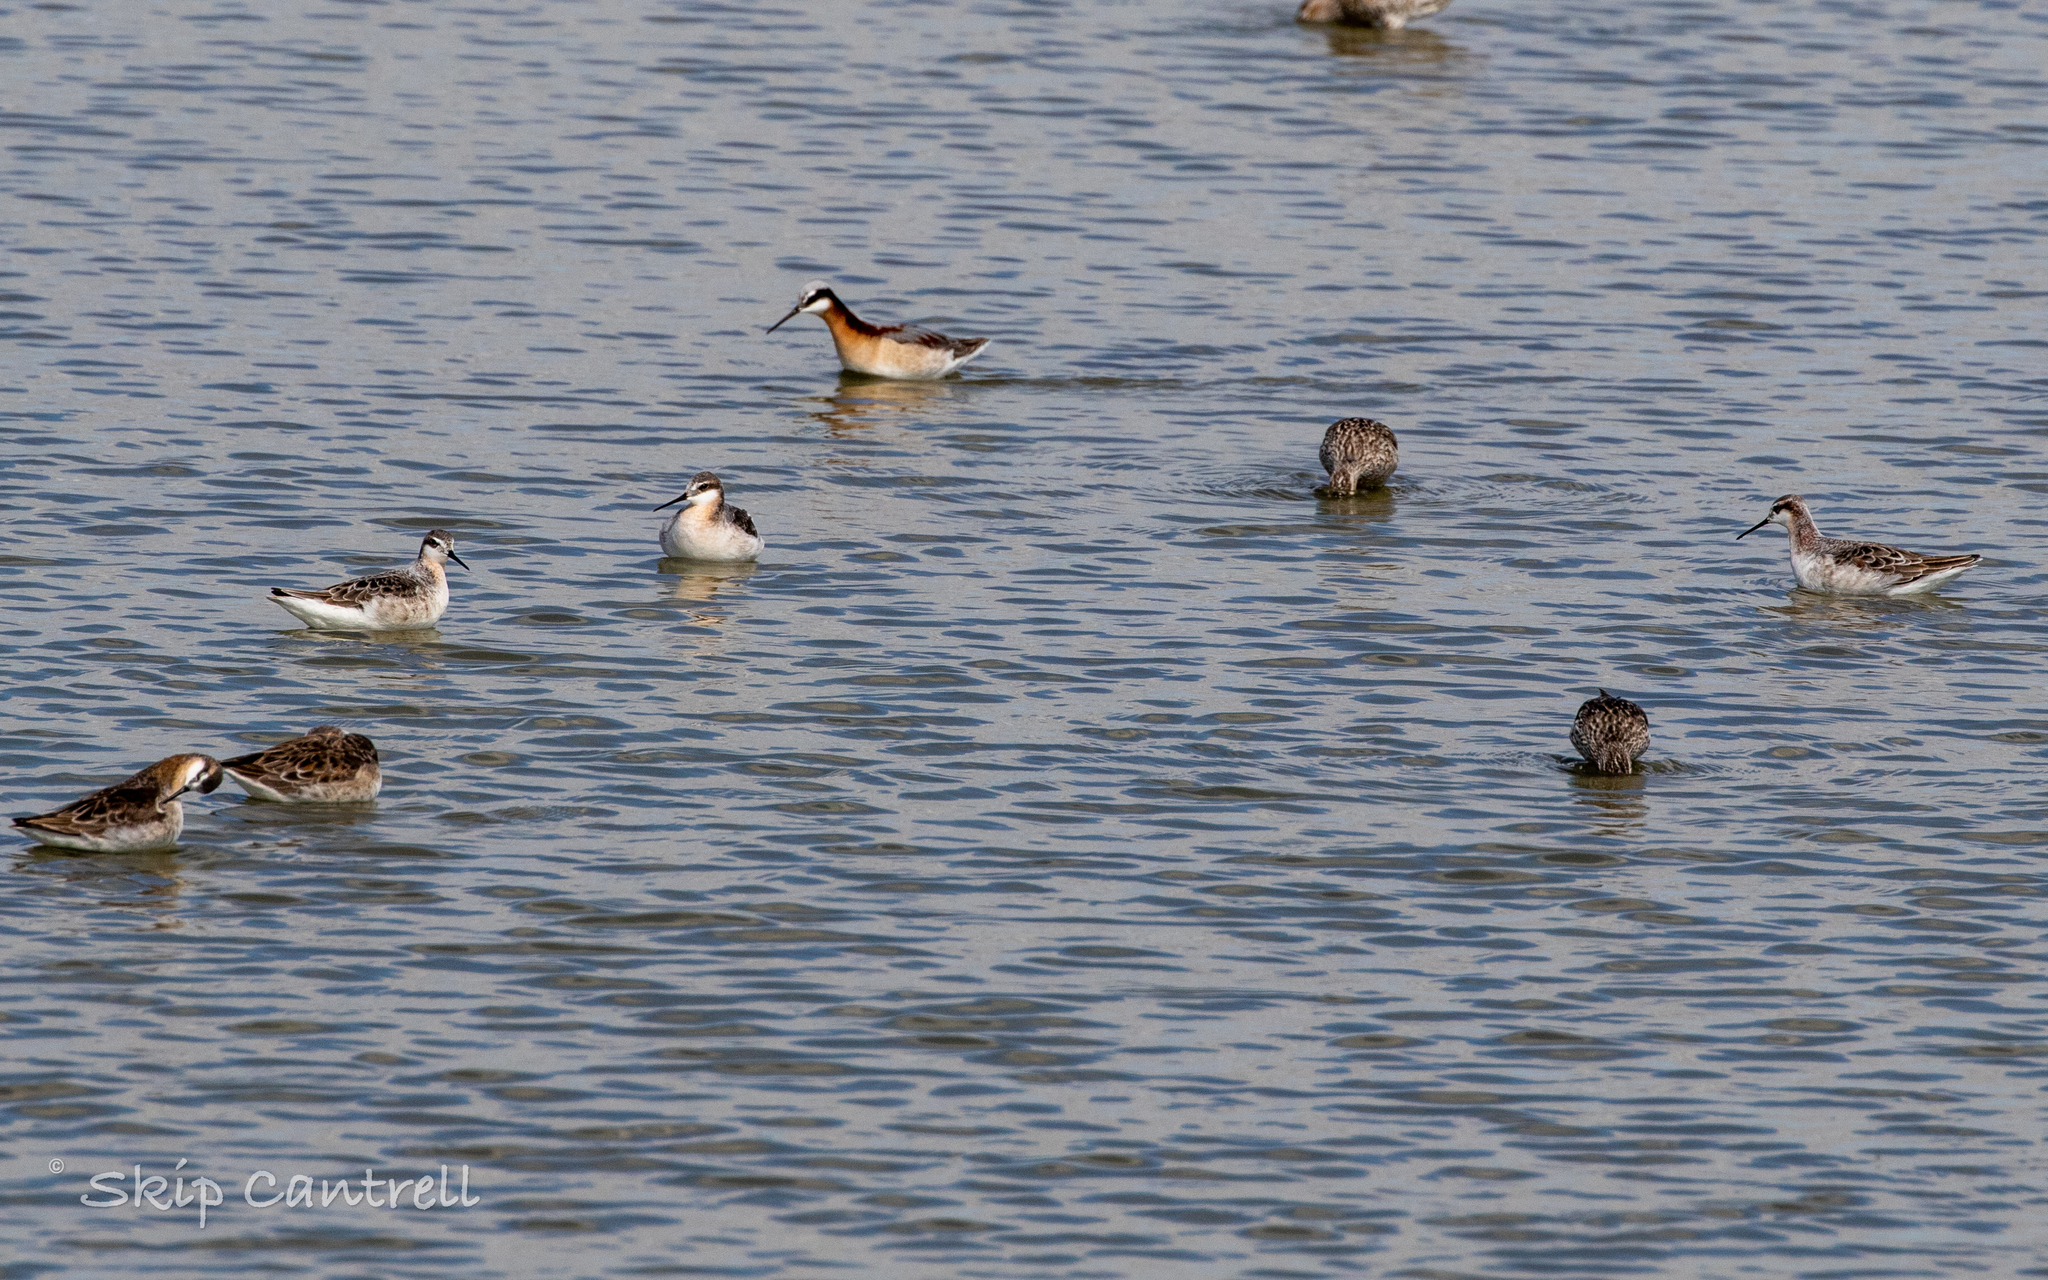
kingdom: Animalia
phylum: Chordata
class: Aves
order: Charadriiformes
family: Scolopacidae
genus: Phalaropus
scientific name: Phalaropus tricolor
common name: Wilson's phalarope
